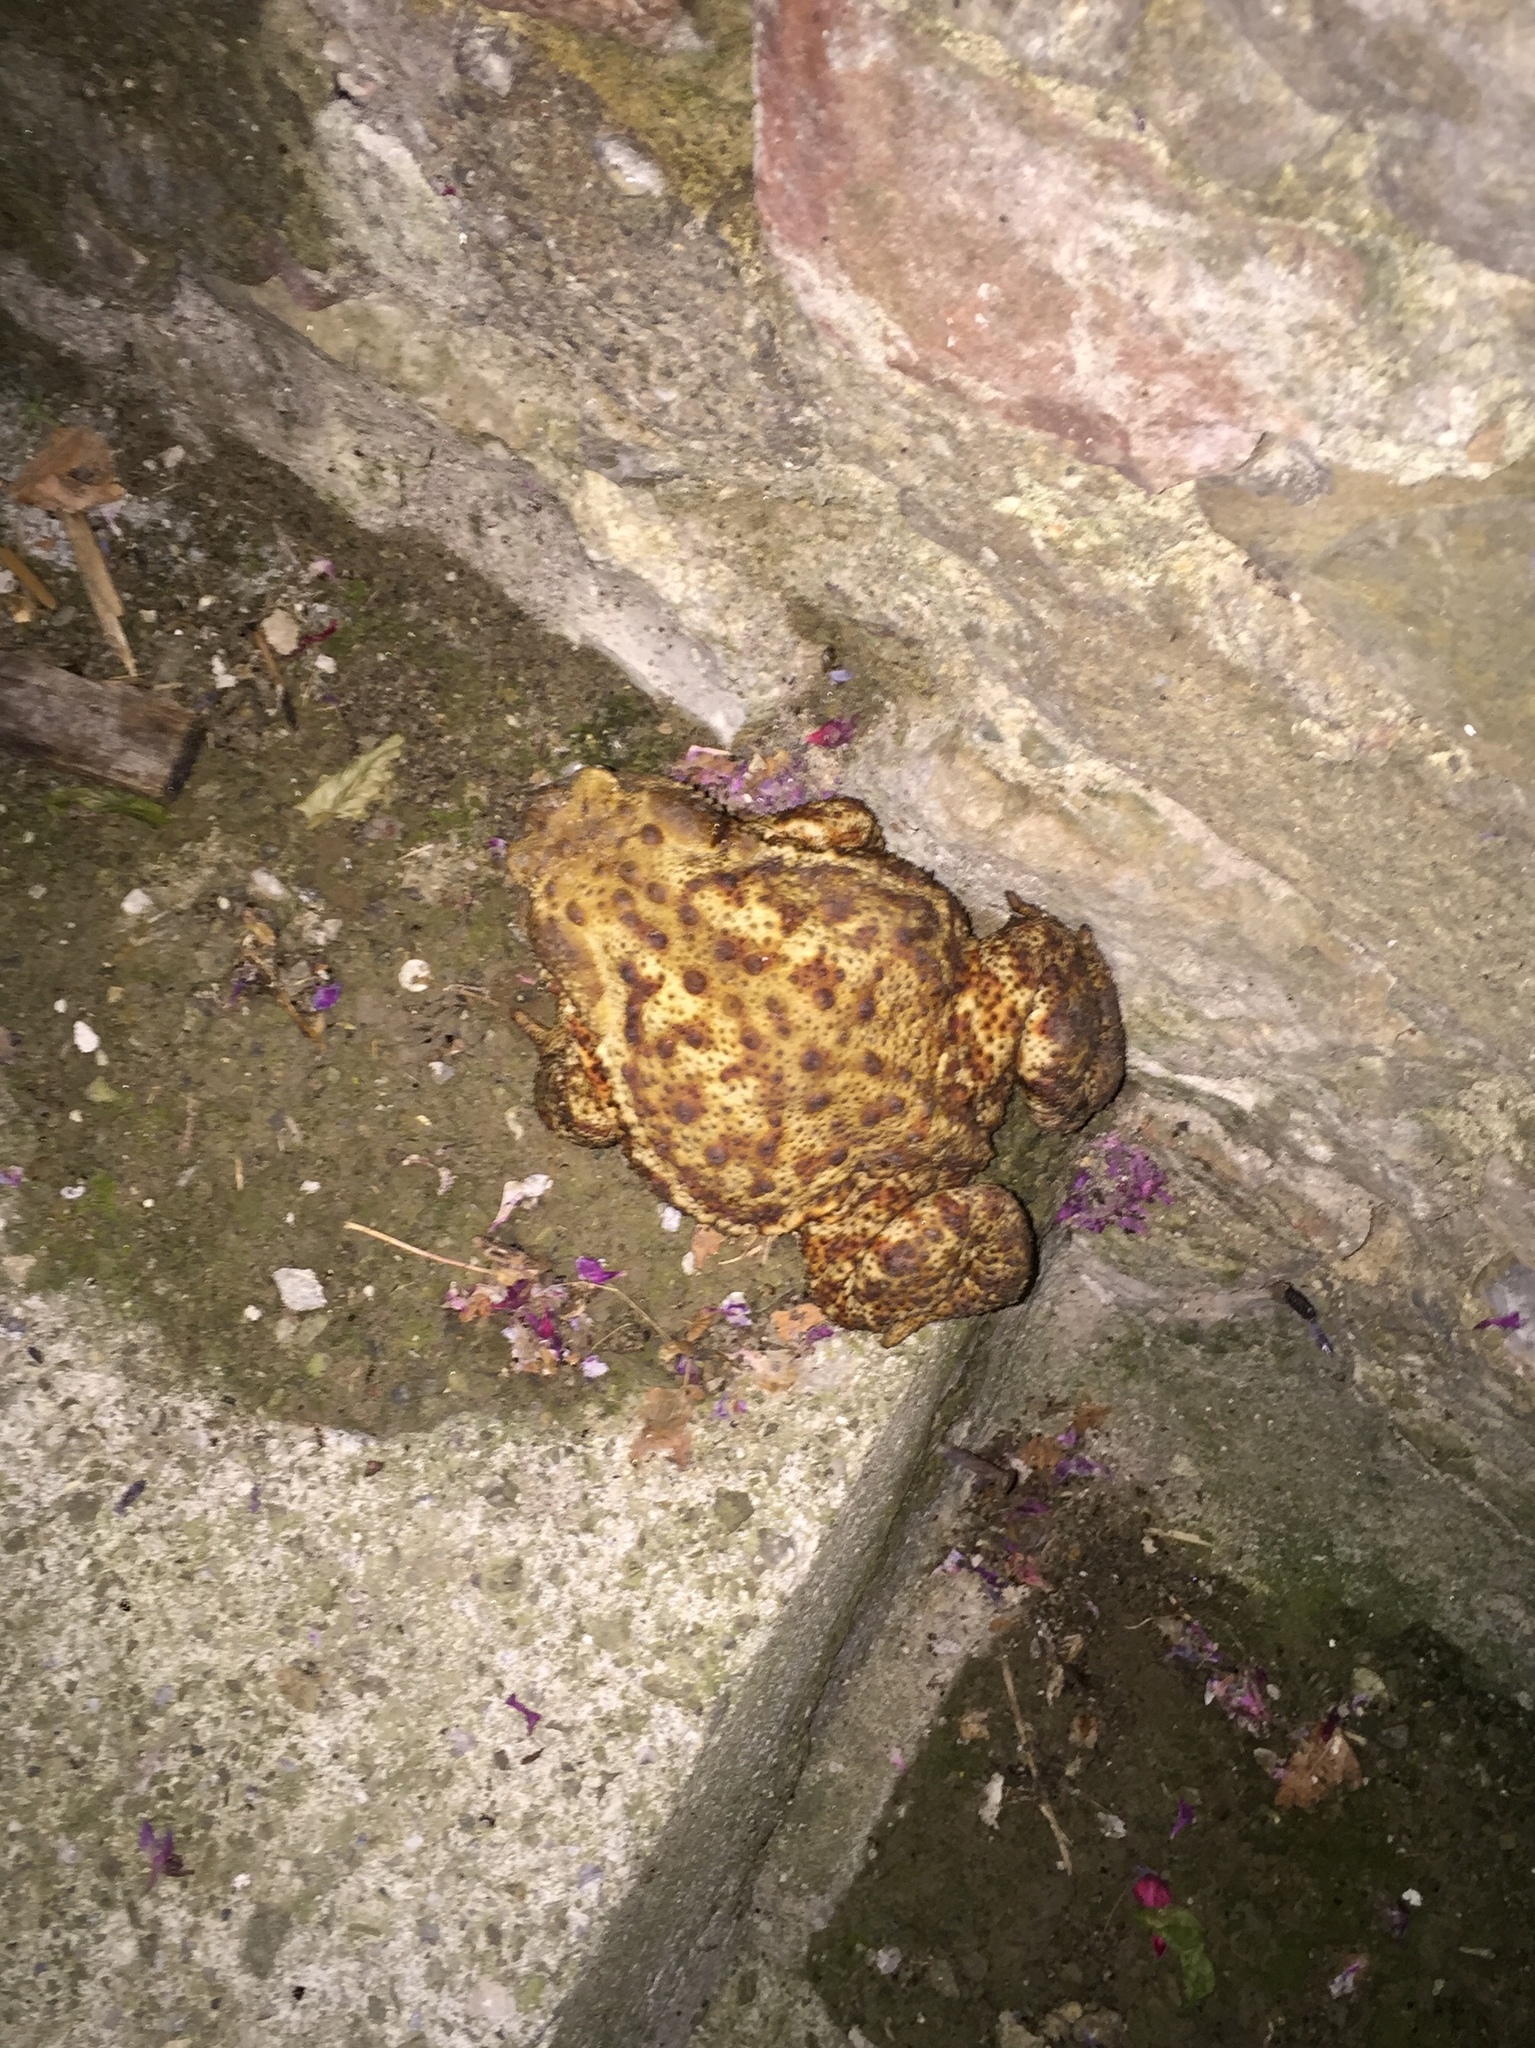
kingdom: Animalia
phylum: Chordata
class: Amphibia
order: Anura
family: Bufonidae
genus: Bufo
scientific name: Bufo bufo
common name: Common toad
